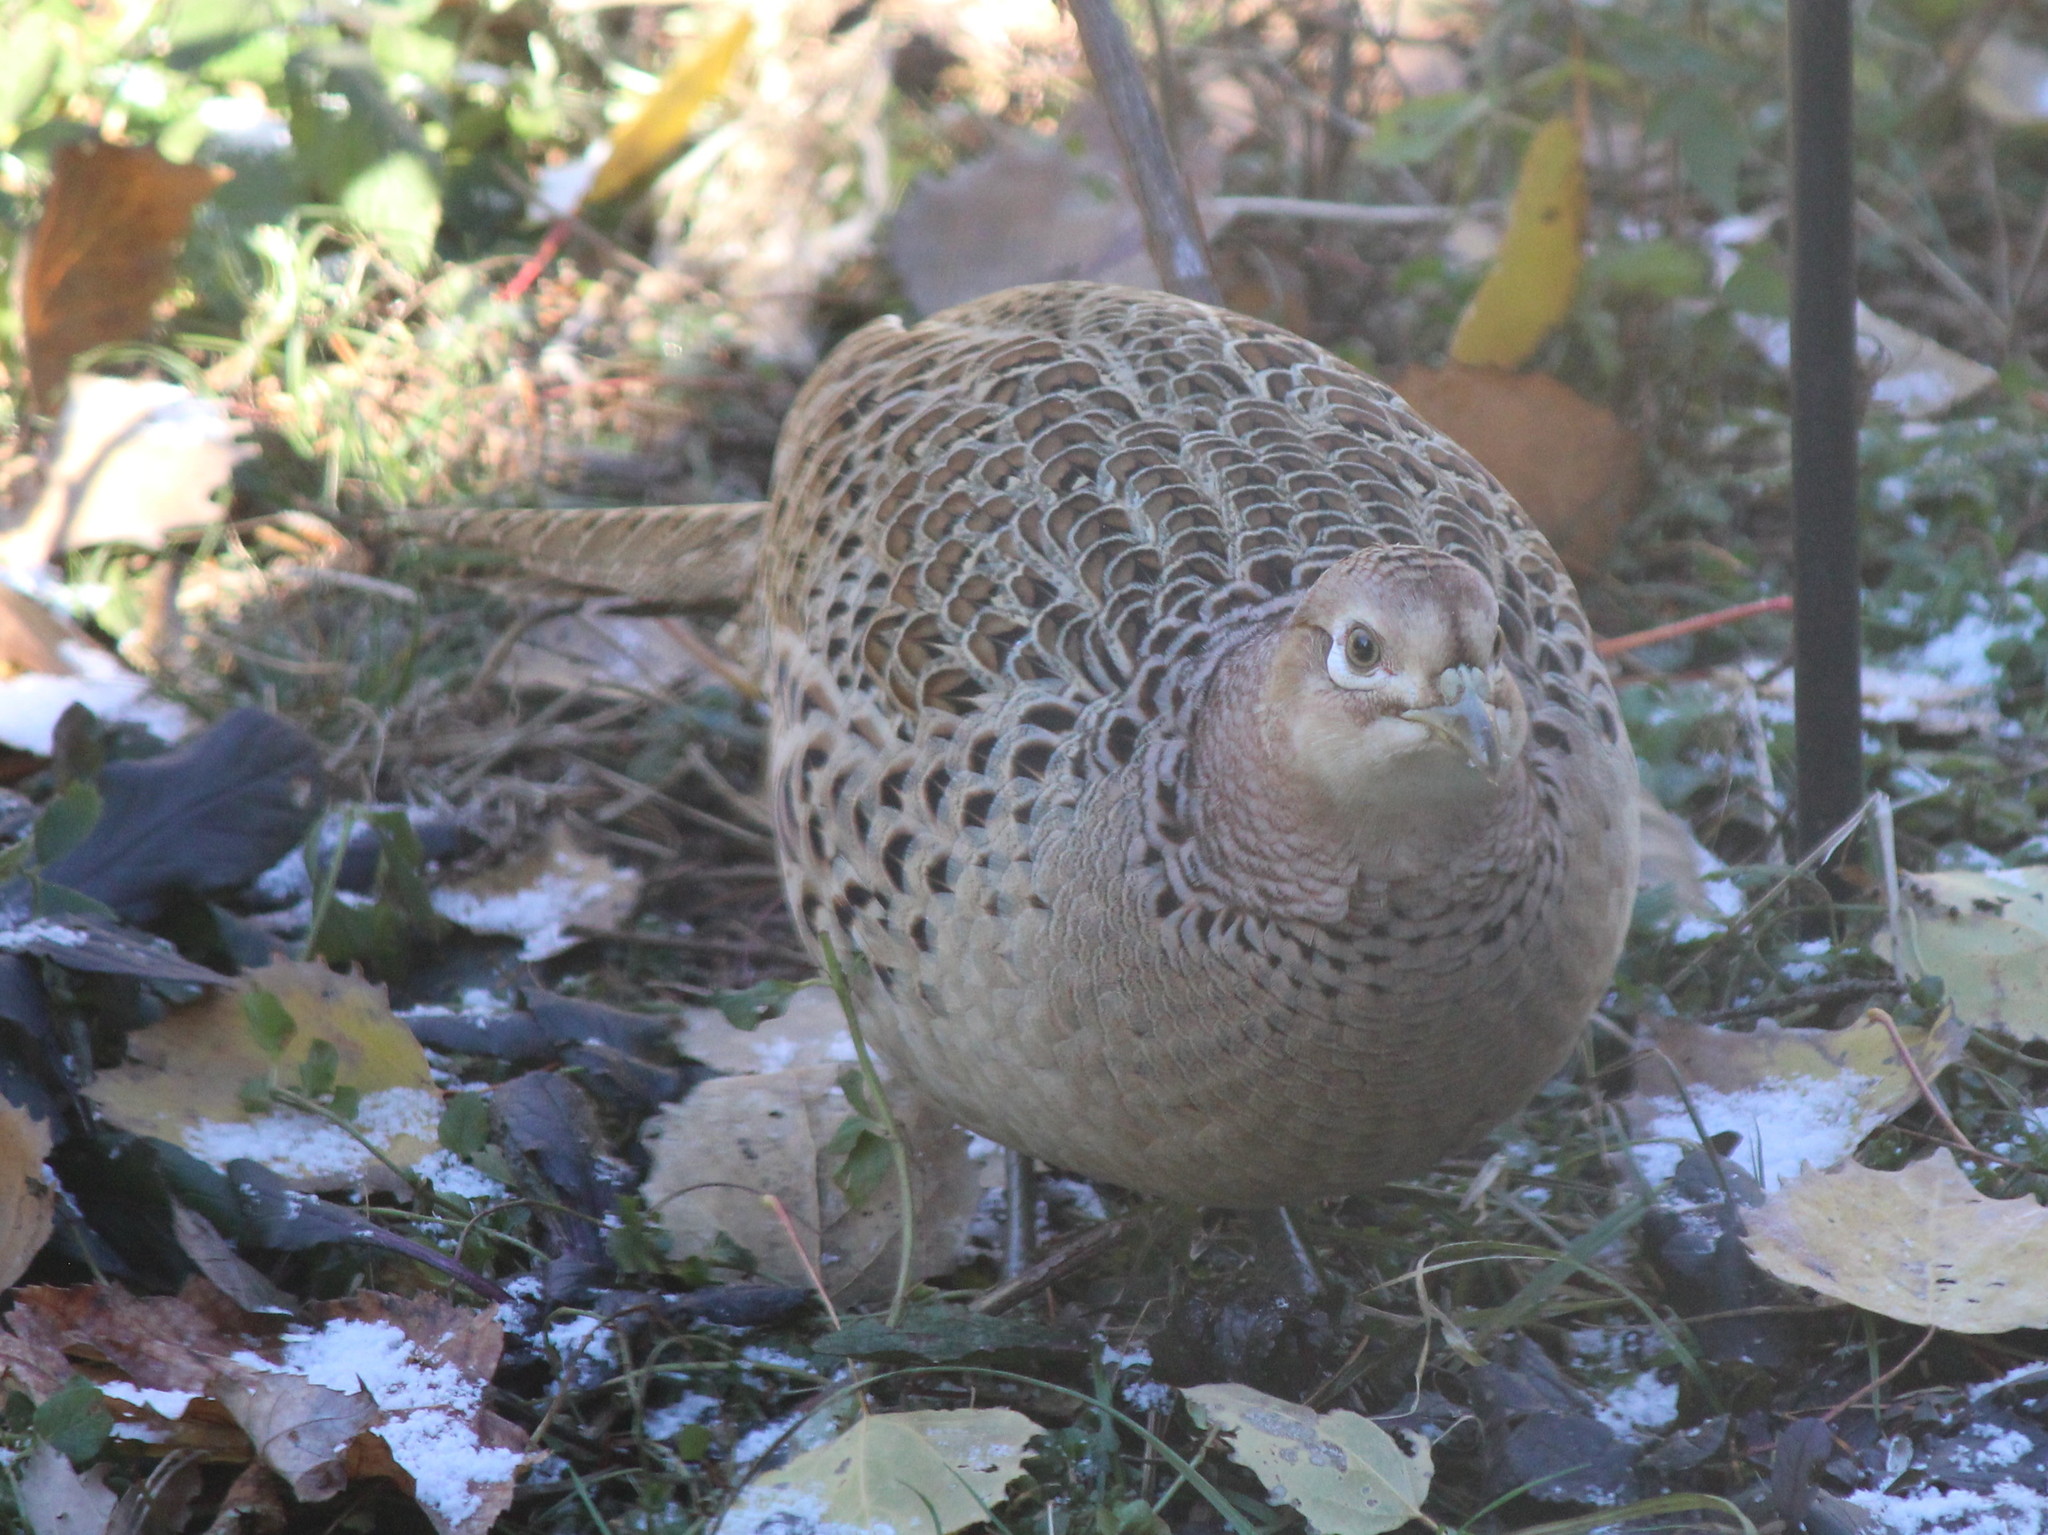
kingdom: Animalia
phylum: Chordata
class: Aves
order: Galliformes
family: Phasianidae
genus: Phasianus
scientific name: Phasianus colchicus
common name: Common pheasant
